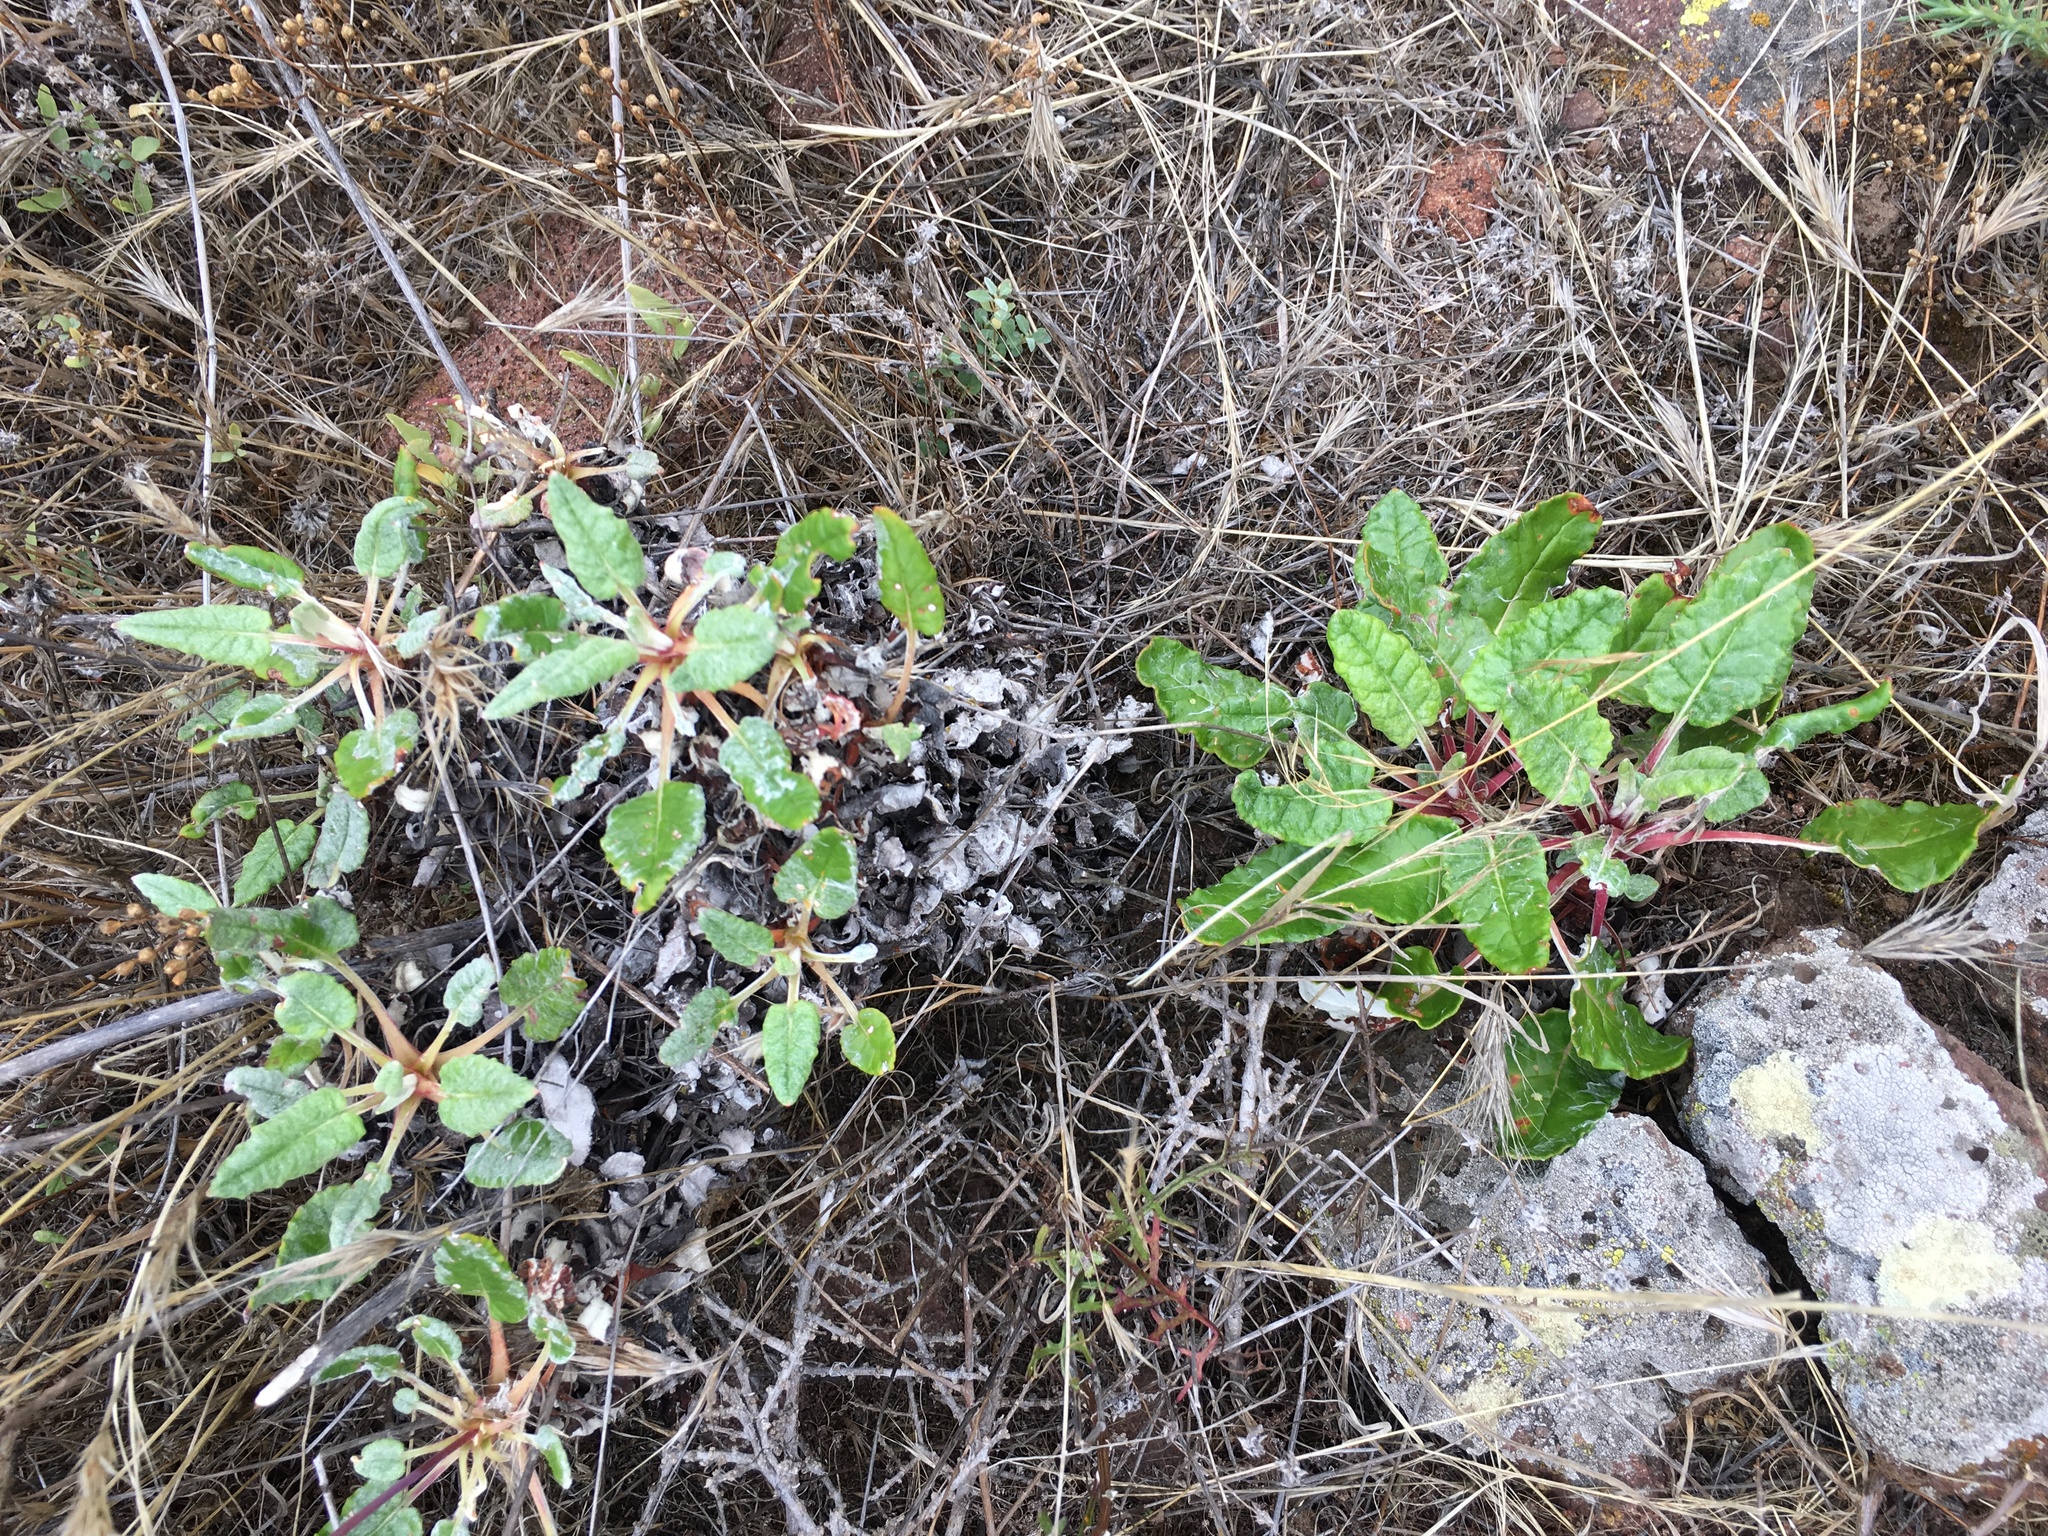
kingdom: Plantae
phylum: Tracheophyta
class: Magnoliopsida
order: Caryophyllales
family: Polygonaceae
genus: Eriogonum
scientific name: Eriogonum grande
